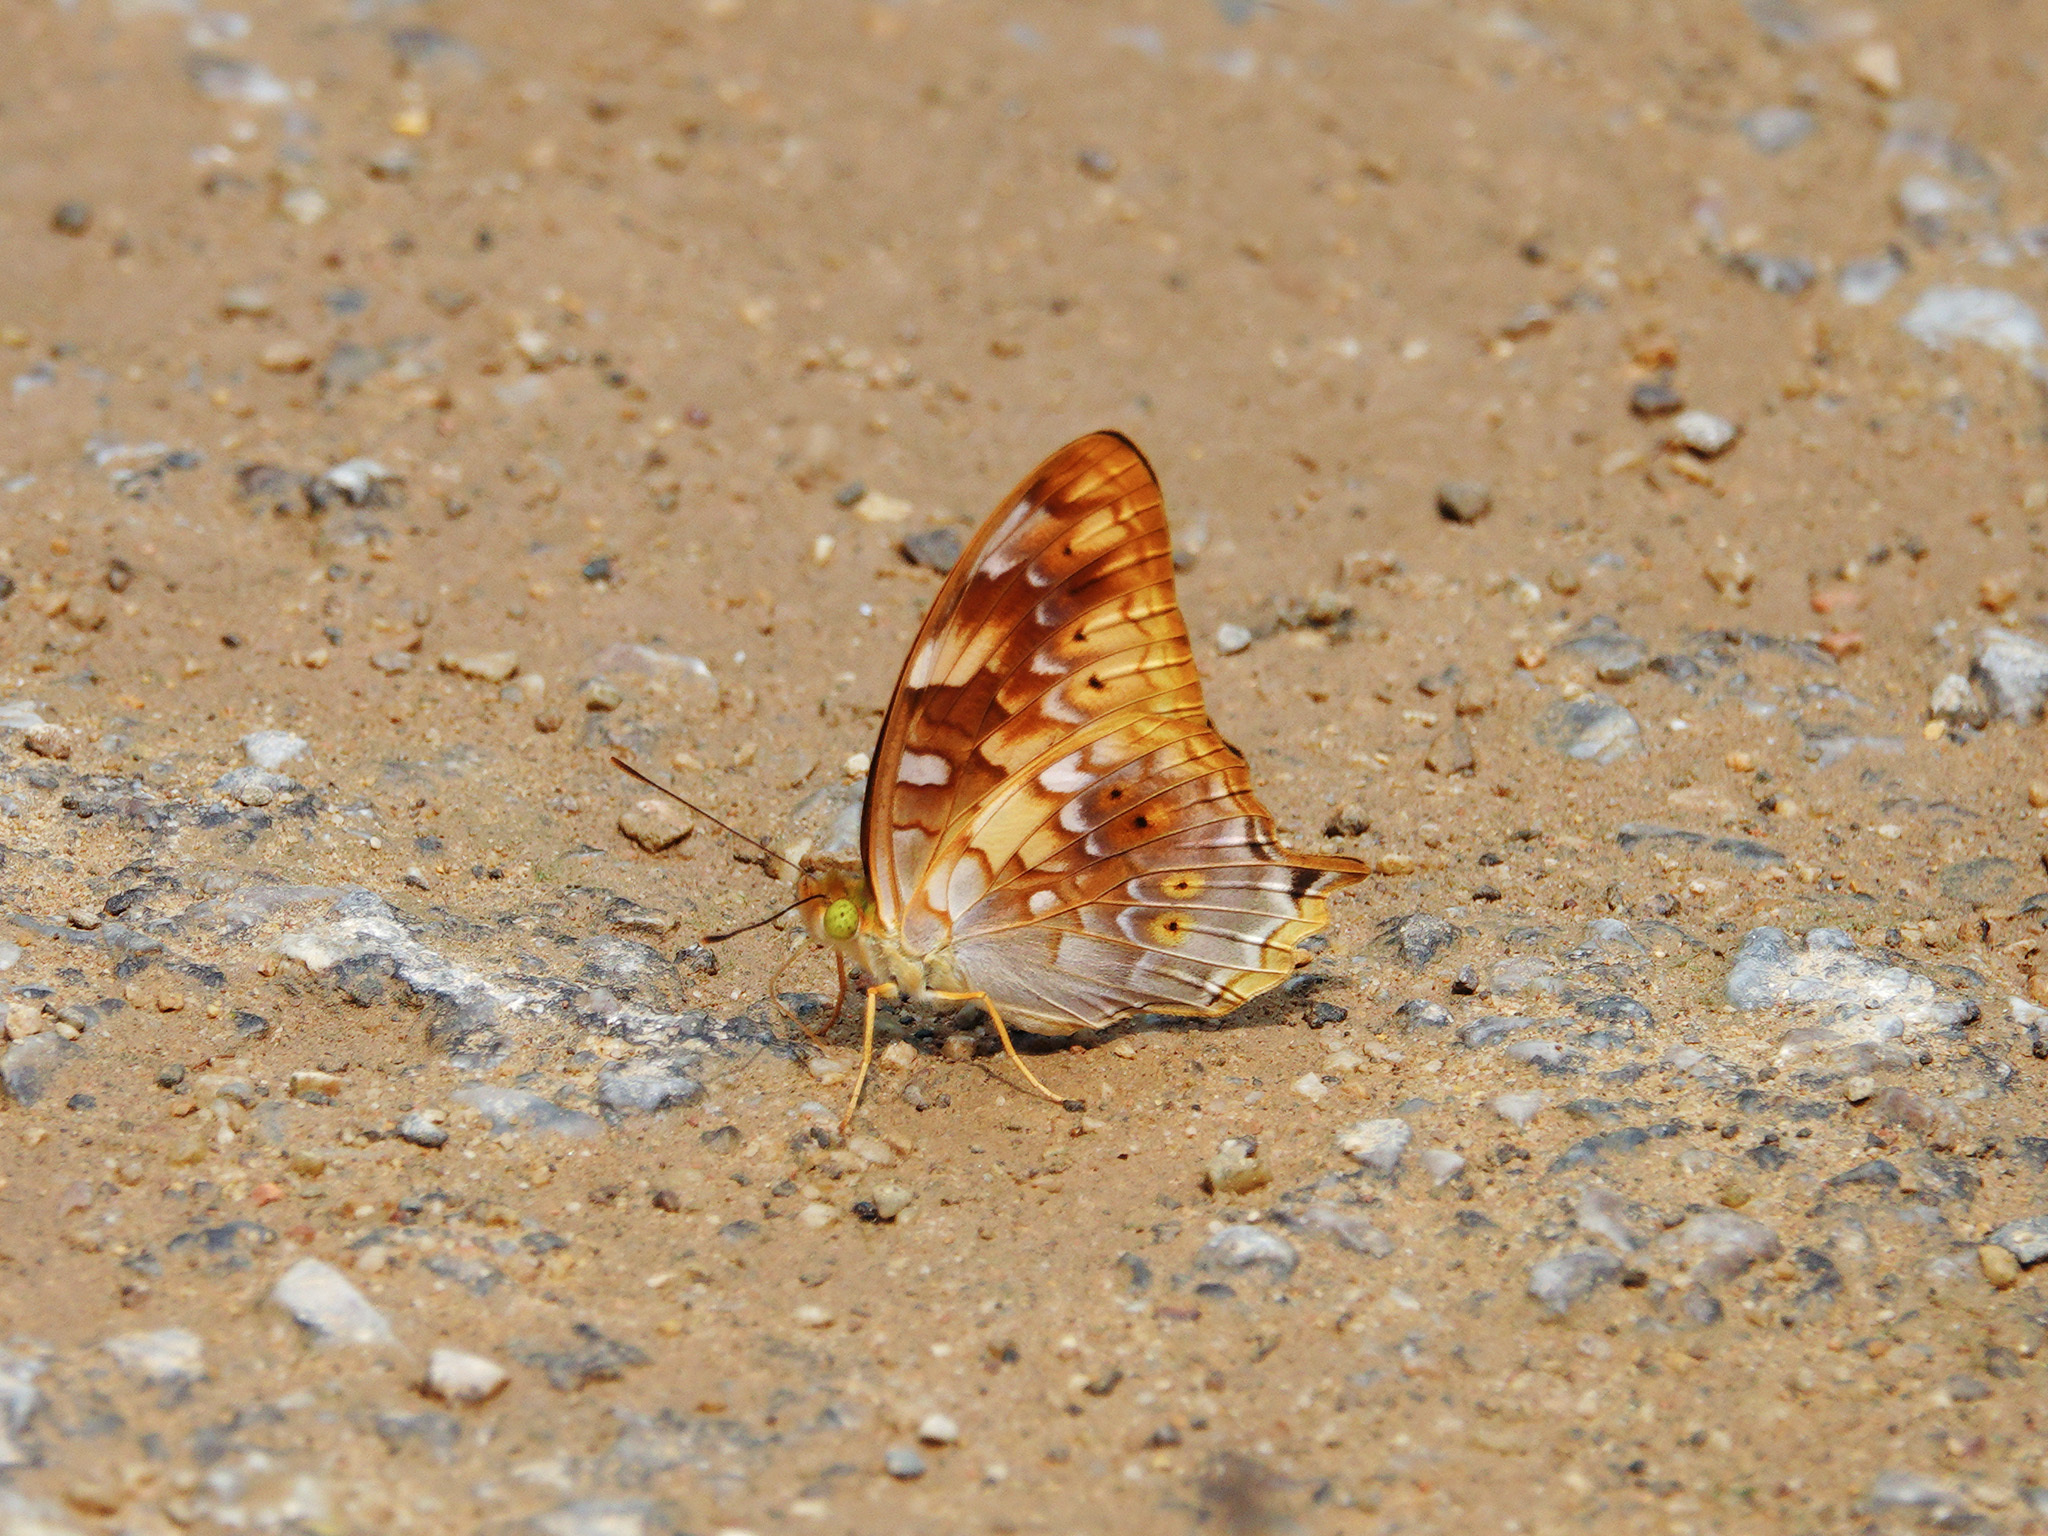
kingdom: Animalia
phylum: Arthropoda
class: Insecta
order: Lepidoptera
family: Nymphalidae
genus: Vagrans
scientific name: Vagrans sinha
